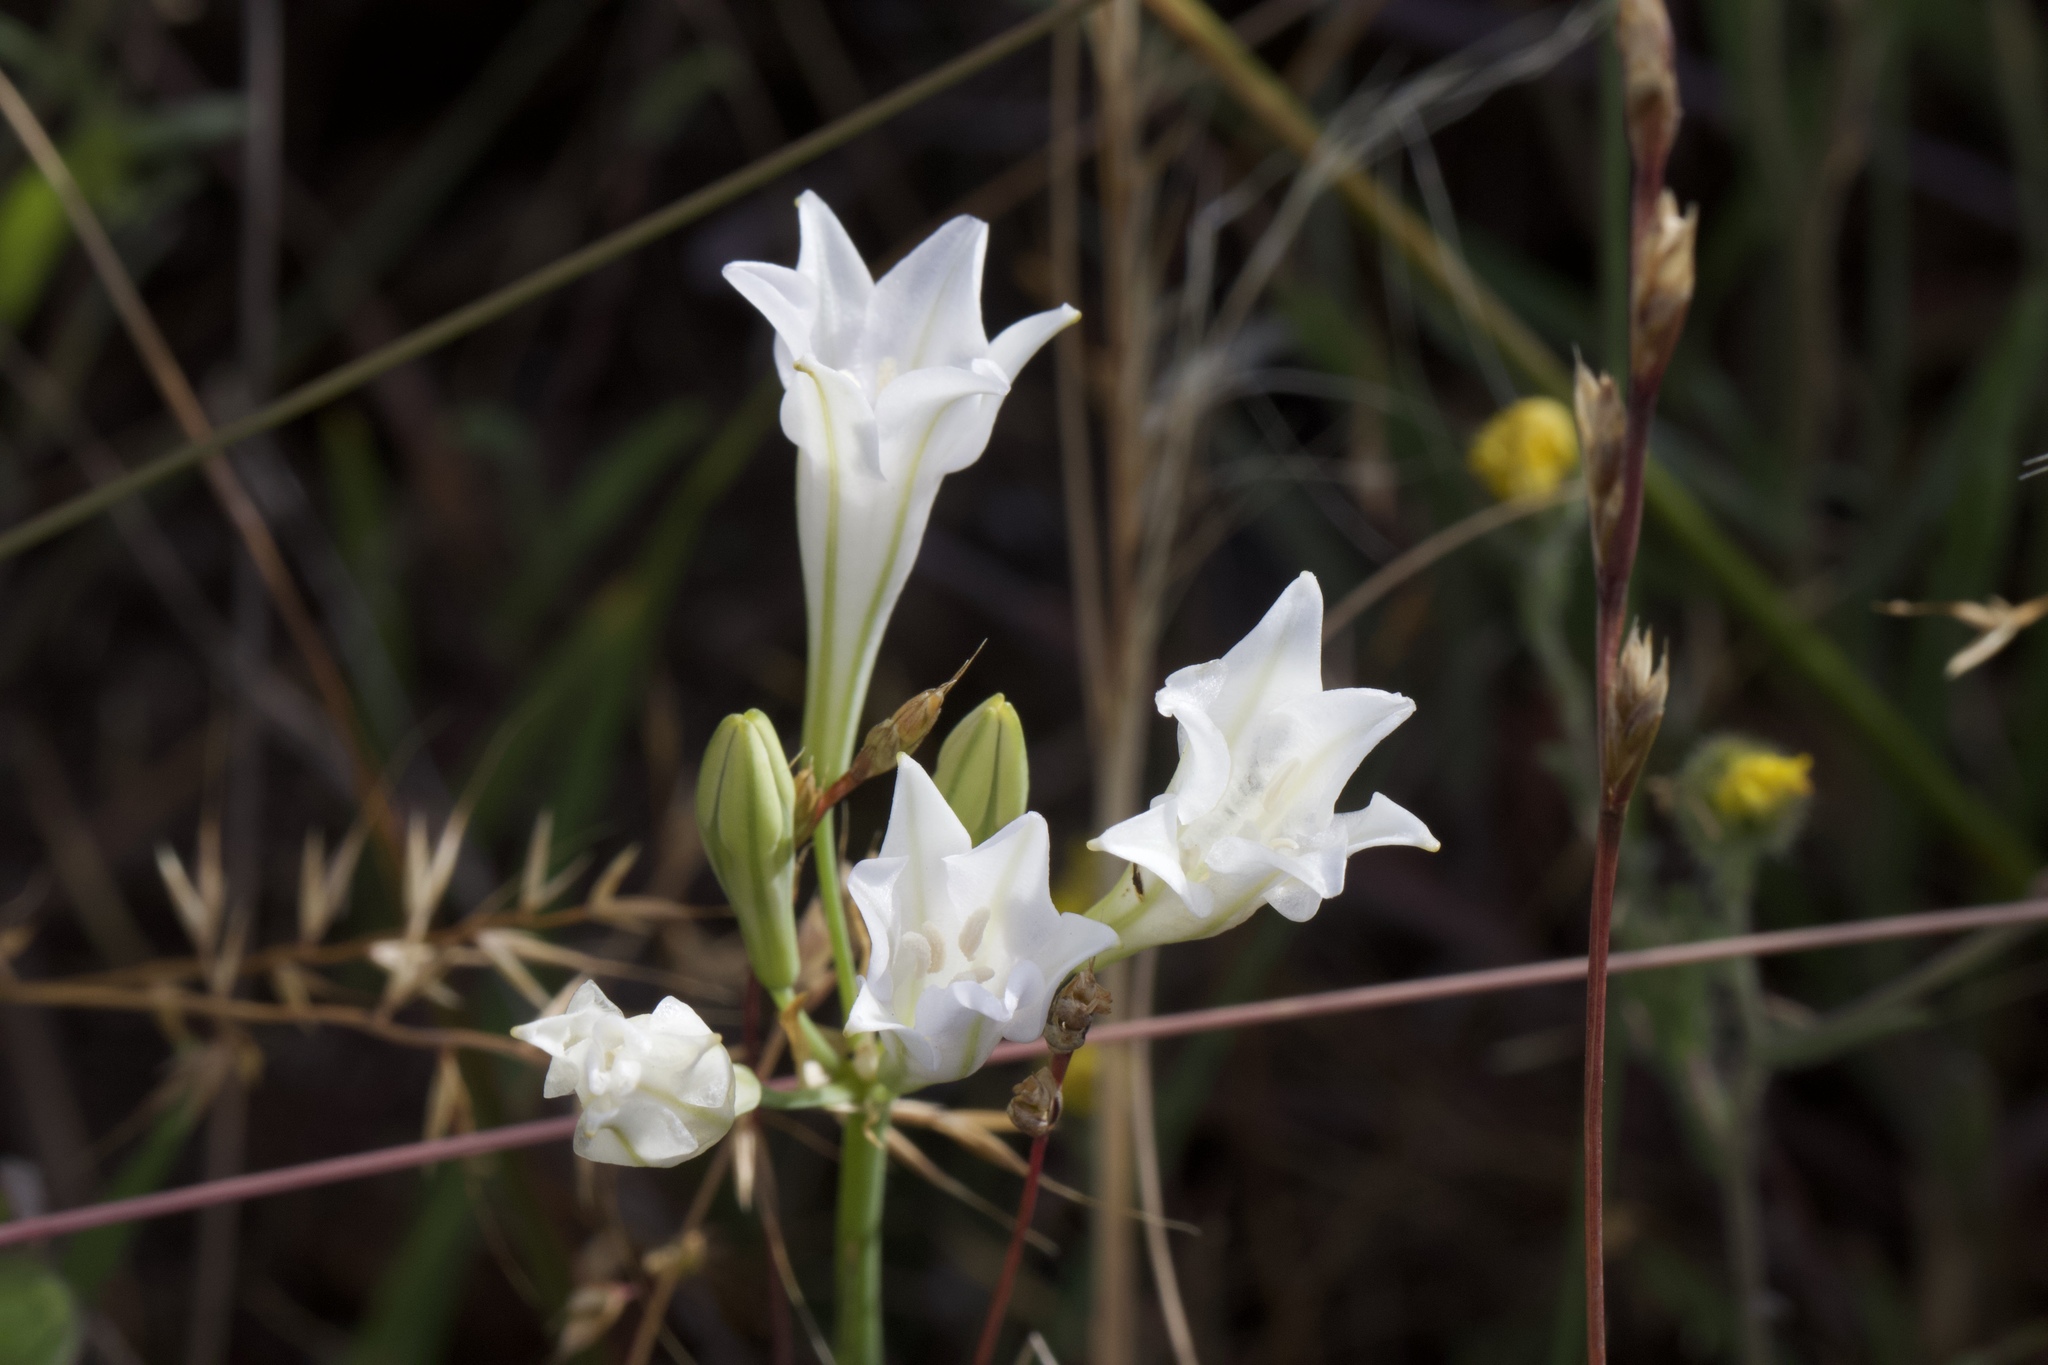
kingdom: Plantae
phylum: Tracheophyta
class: Liliopsida
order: Asparagales
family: Asparagaceae
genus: Triteleia
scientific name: Triteleia laxa
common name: Triplet-lily
